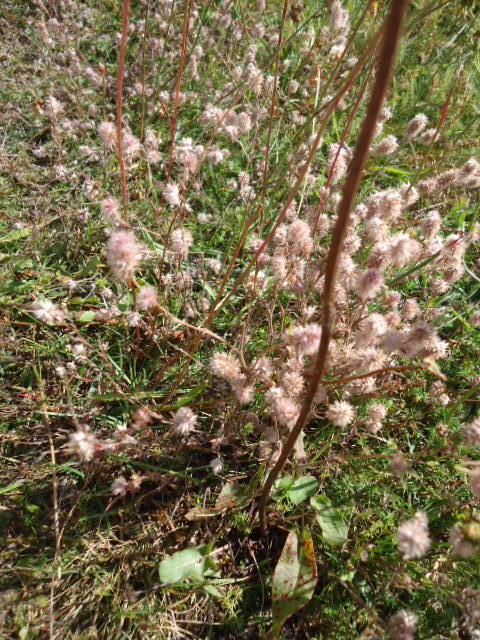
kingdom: Plantae
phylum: Tracheophyta
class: Magnoliopsida
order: Fabales
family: Fabaceae
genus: Trifolium
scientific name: Trifolium arvense
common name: Hare's-foot clover
